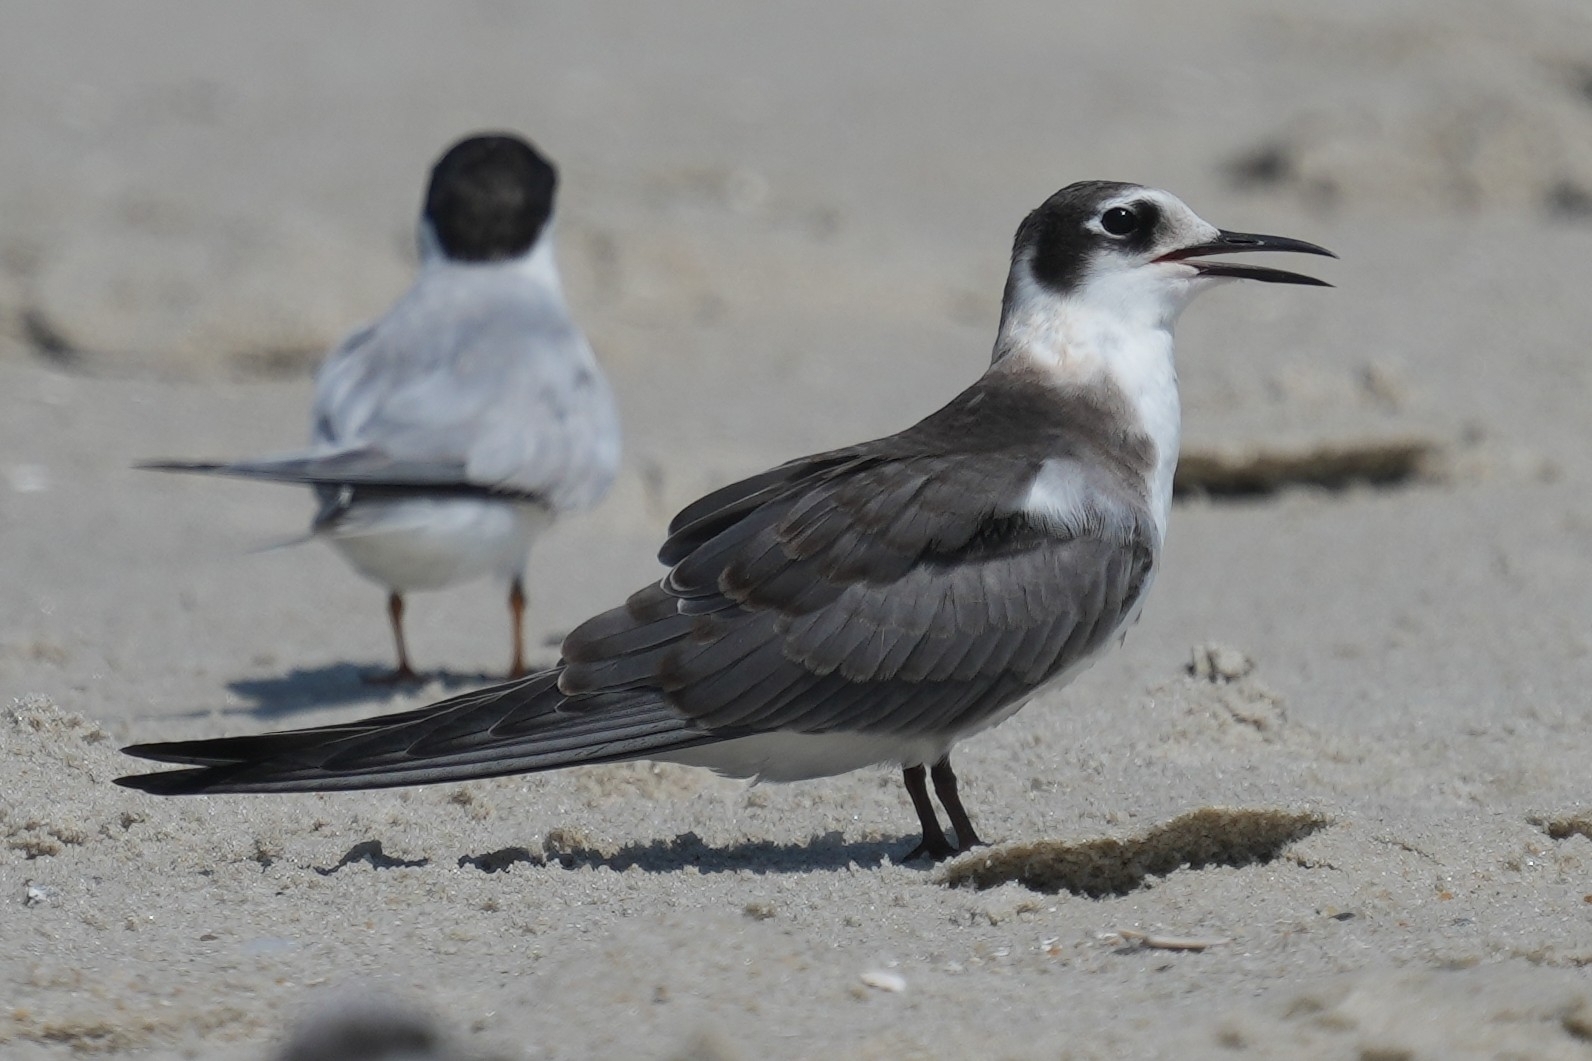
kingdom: Animalia
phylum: Chordata
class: Aves
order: Charadriiformes
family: Laridae
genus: Chlidonias
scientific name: Chlidonias niger
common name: Black tern
